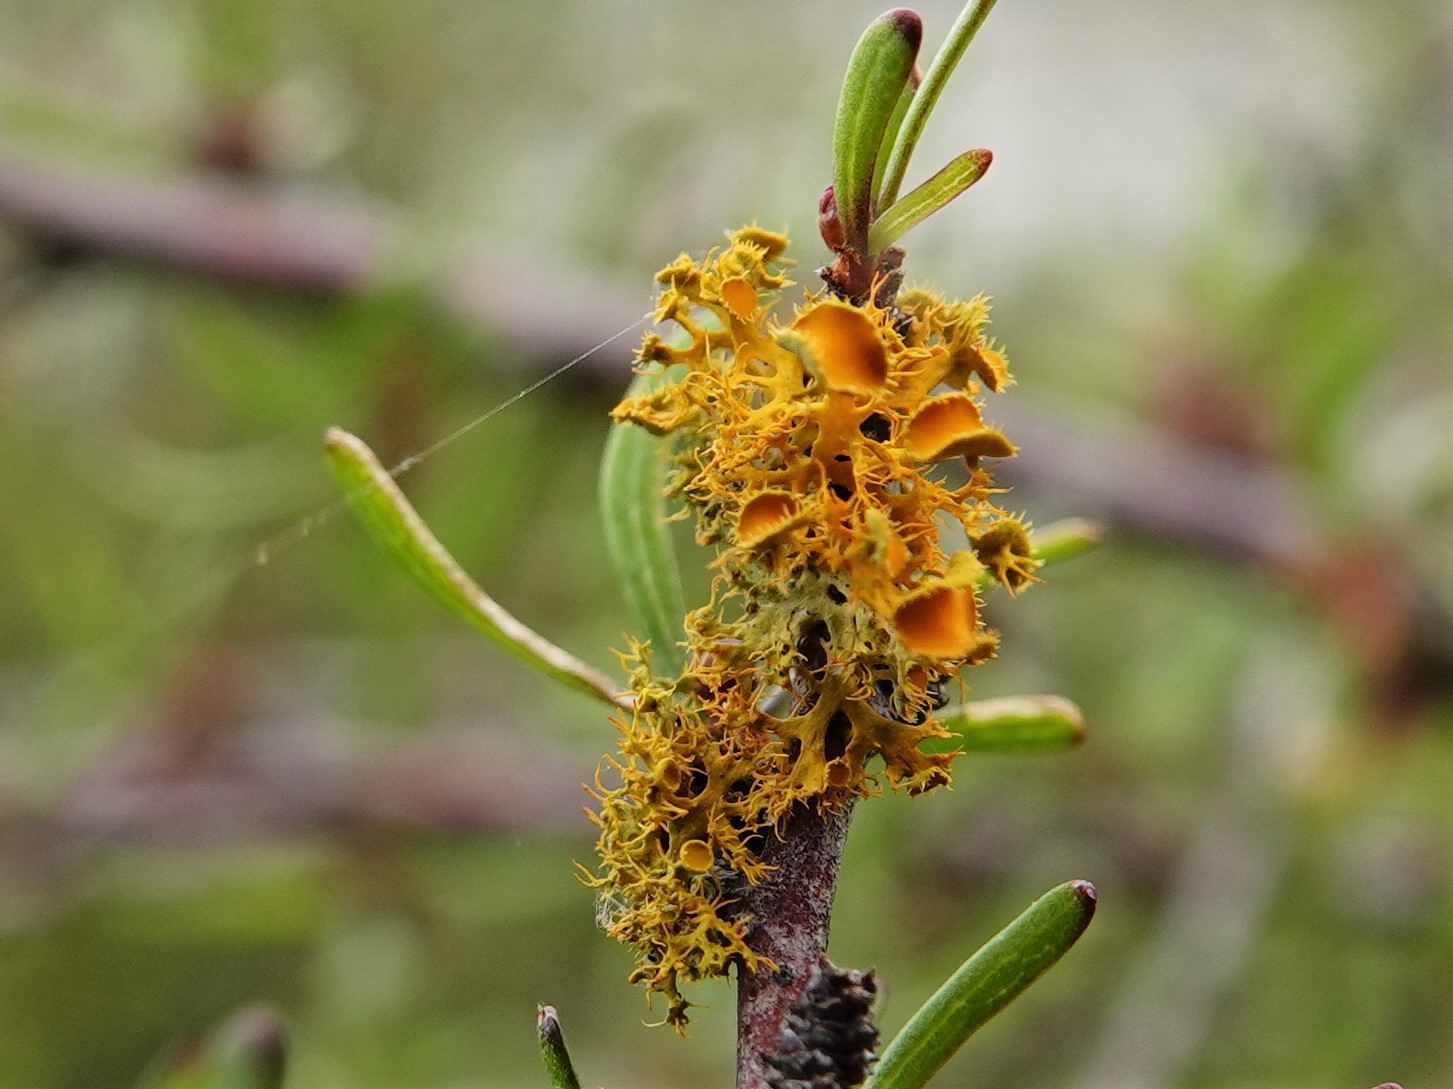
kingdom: Fungi
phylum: Ascomycota
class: Lecanoromycetes
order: Teloschistales
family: Teloschistaceae
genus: Niorma
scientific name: Niorma chrysophthalma
